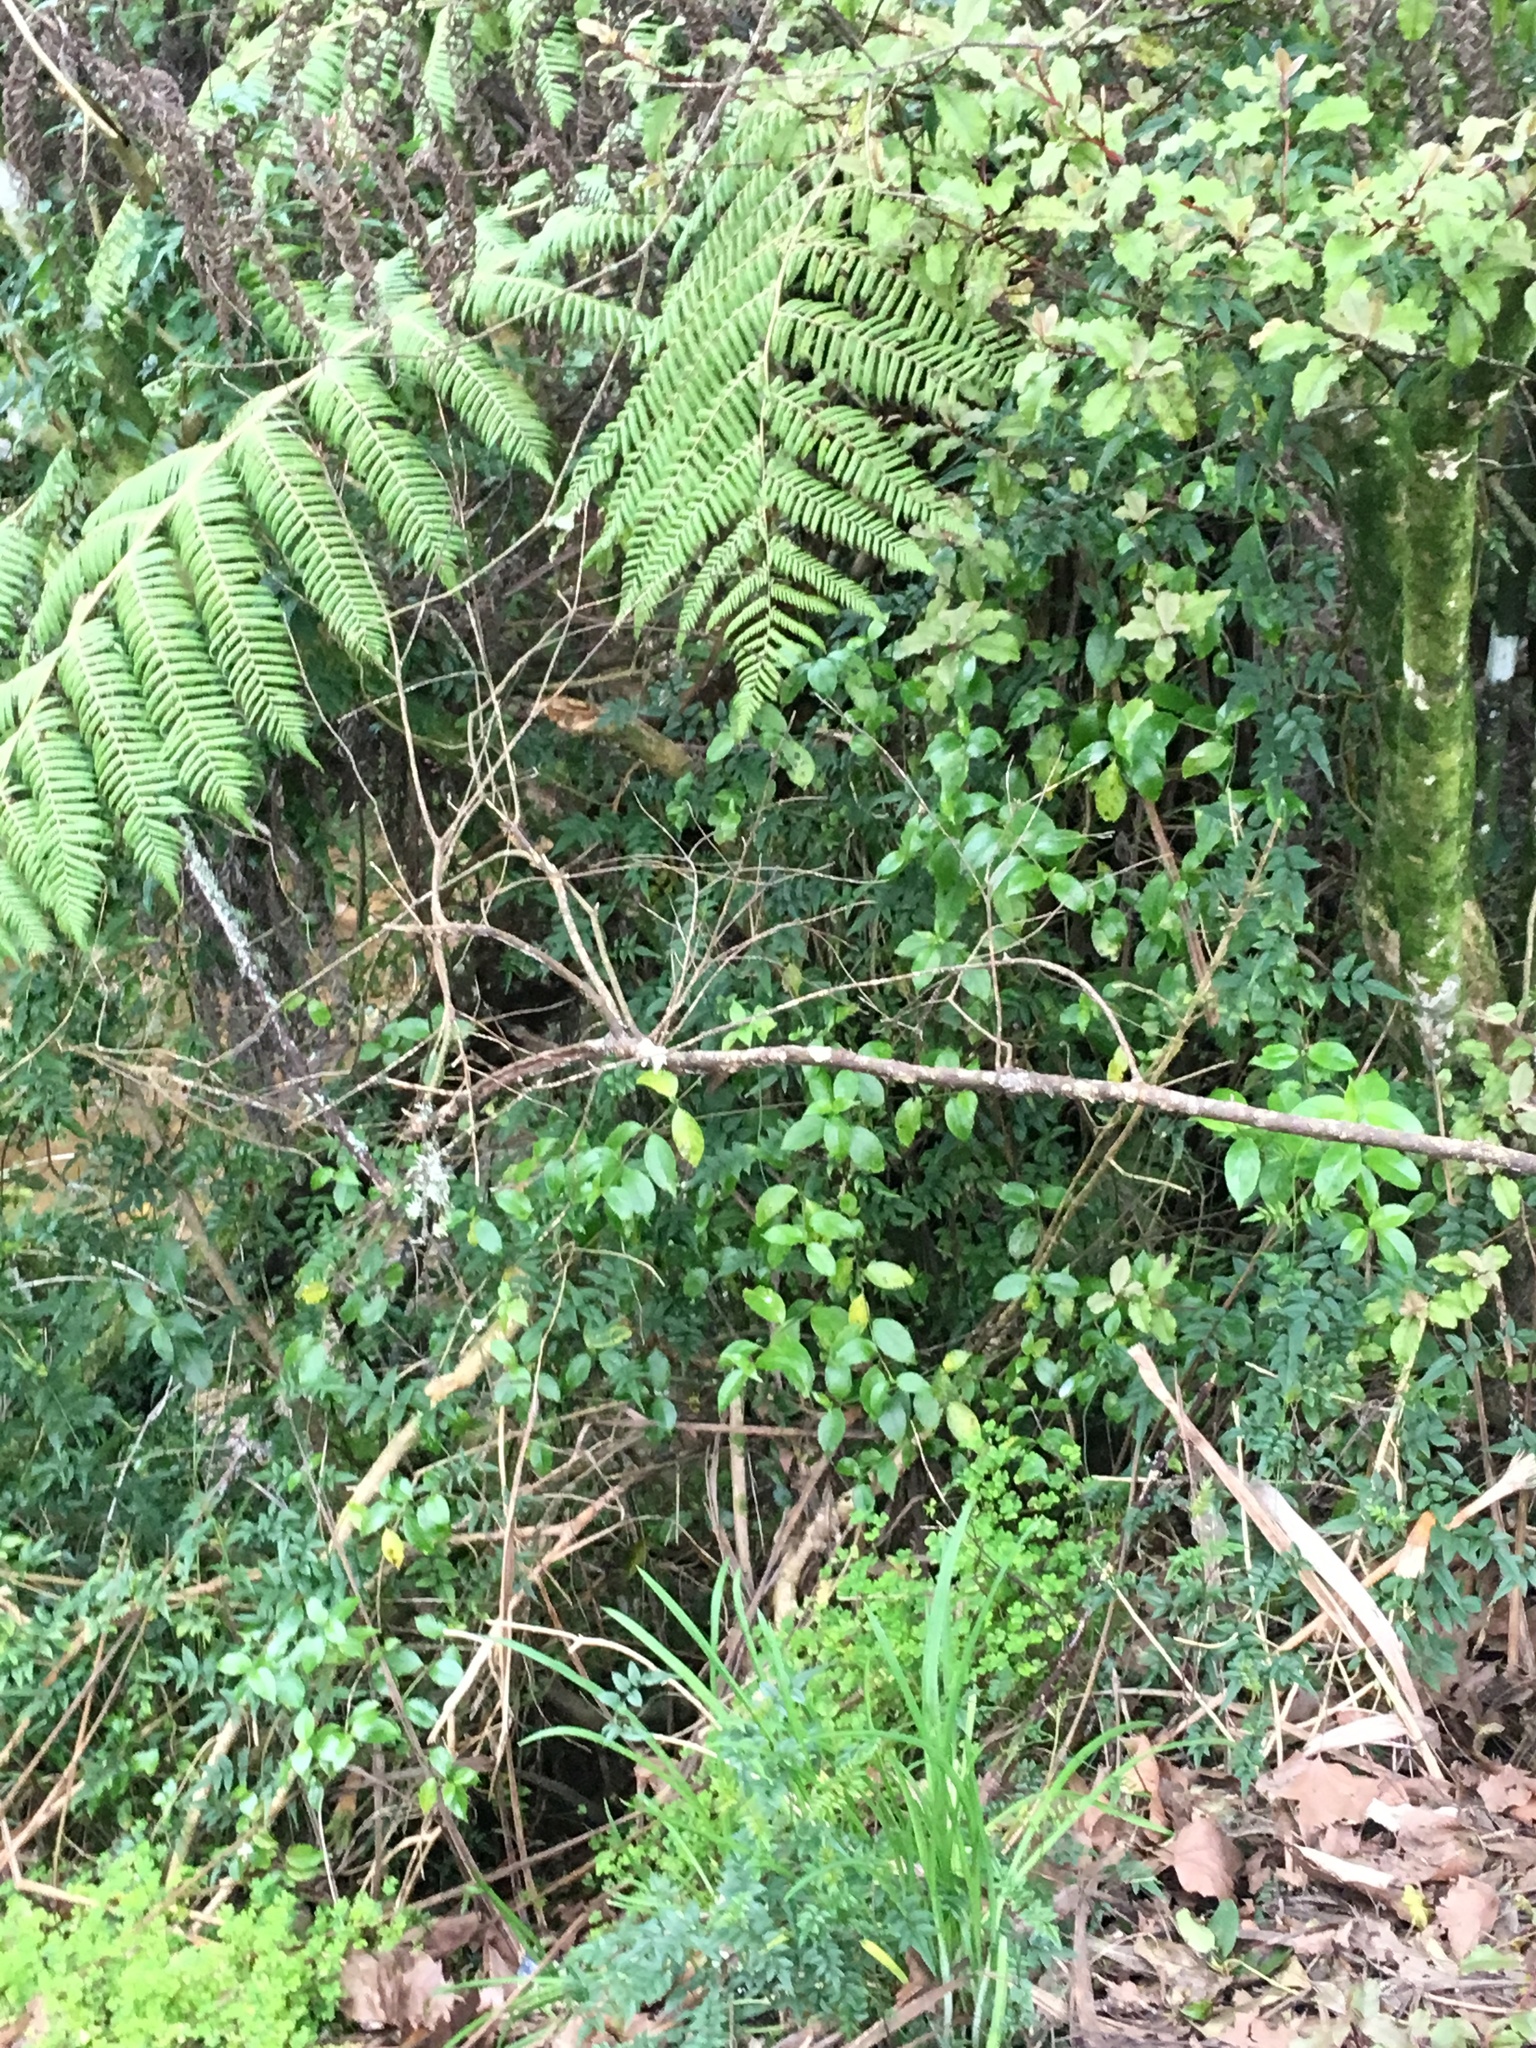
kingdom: Plantae
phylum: Tracheophyta
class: Magnoliopsida
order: Lamiales
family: Oleaceae
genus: Jasminum
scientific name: Jasminum polyanthum
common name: Pink jasmine
